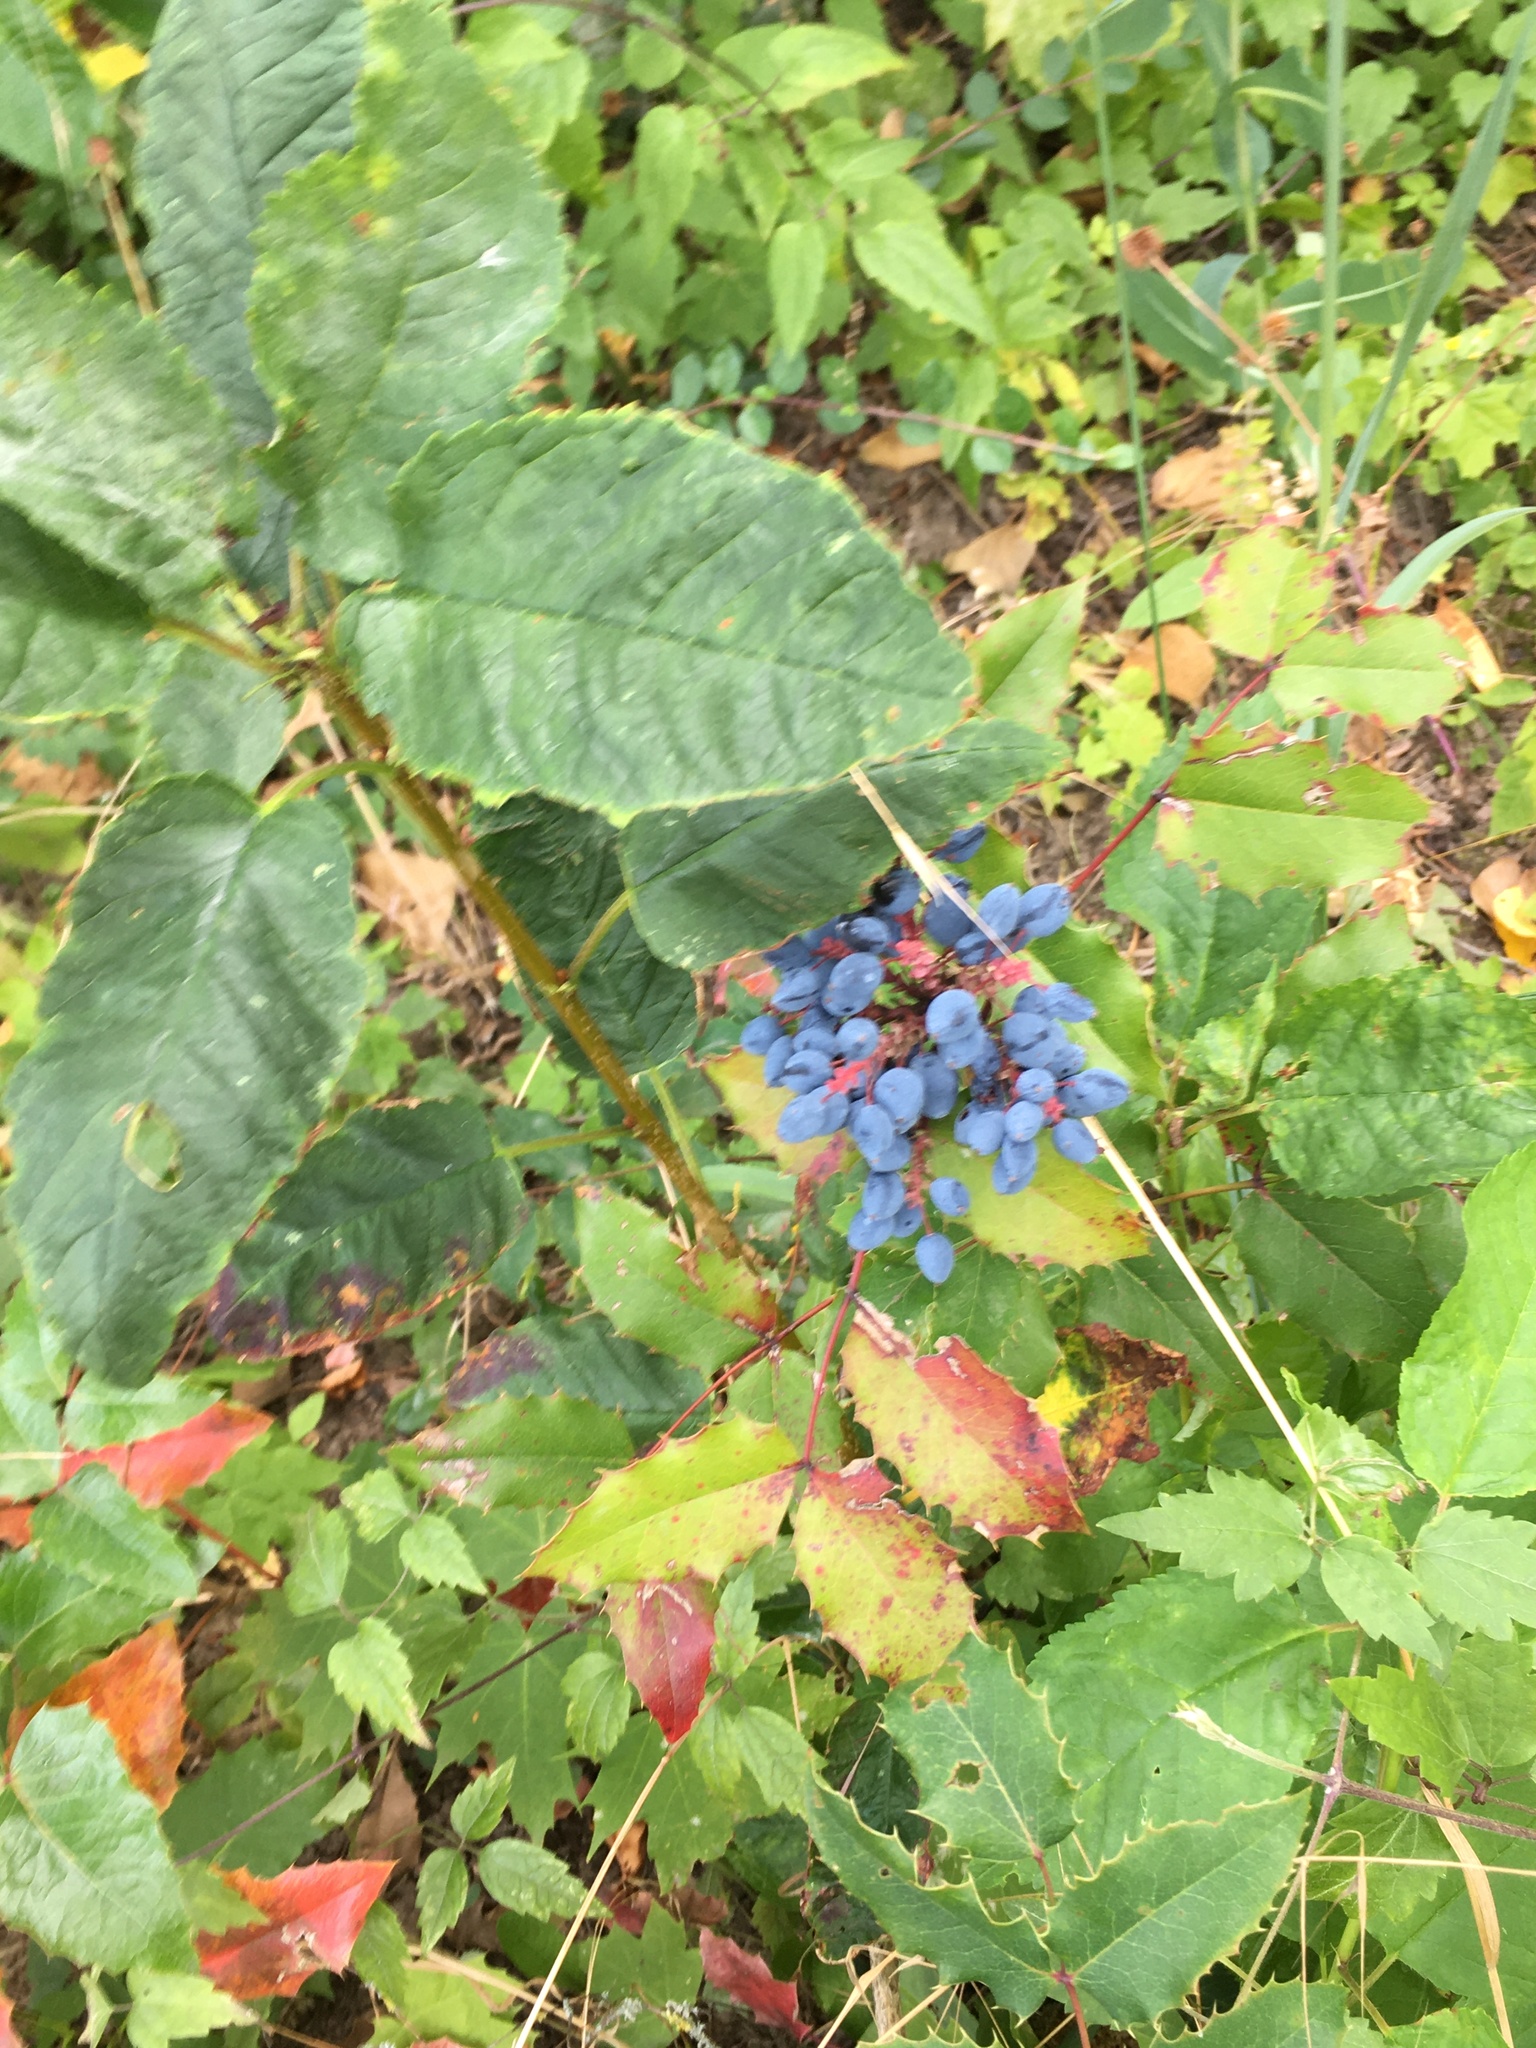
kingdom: Plantae
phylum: Tracheophyta
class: Magnoliopsida
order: Ranunculales
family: Berberidaceae
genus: Mahonia
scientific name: Mahonia aquifolium
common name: Oregon-grape
